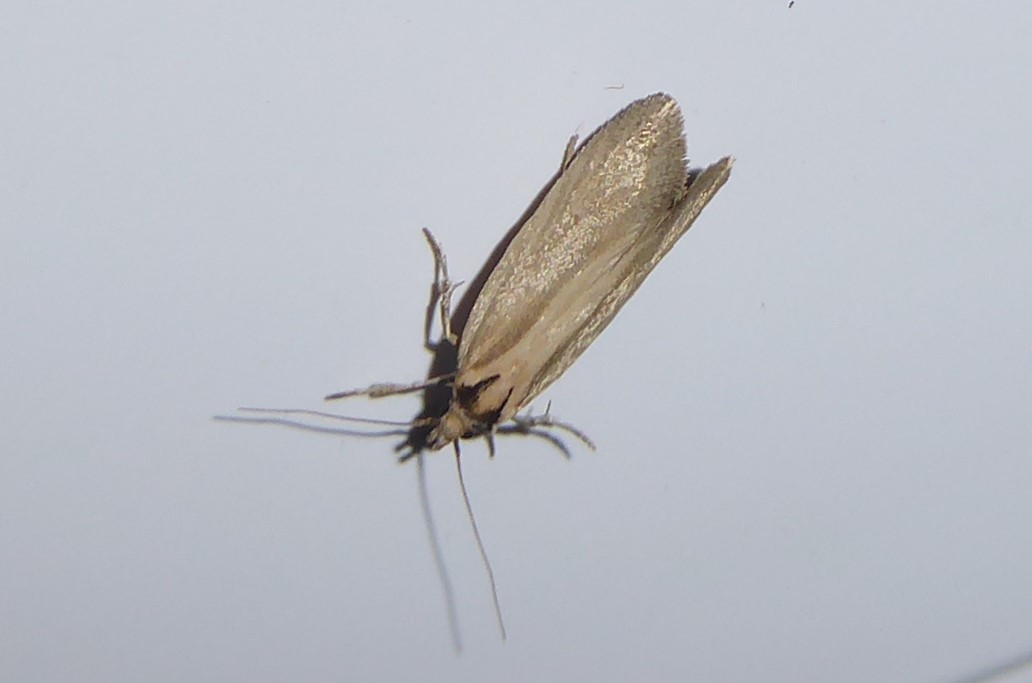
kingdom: Animalia
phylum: Arthropoda
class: Insecta
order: Lepidoptera
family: Oecophoridae
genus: Tingena
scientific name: Tingena chloradelpha
